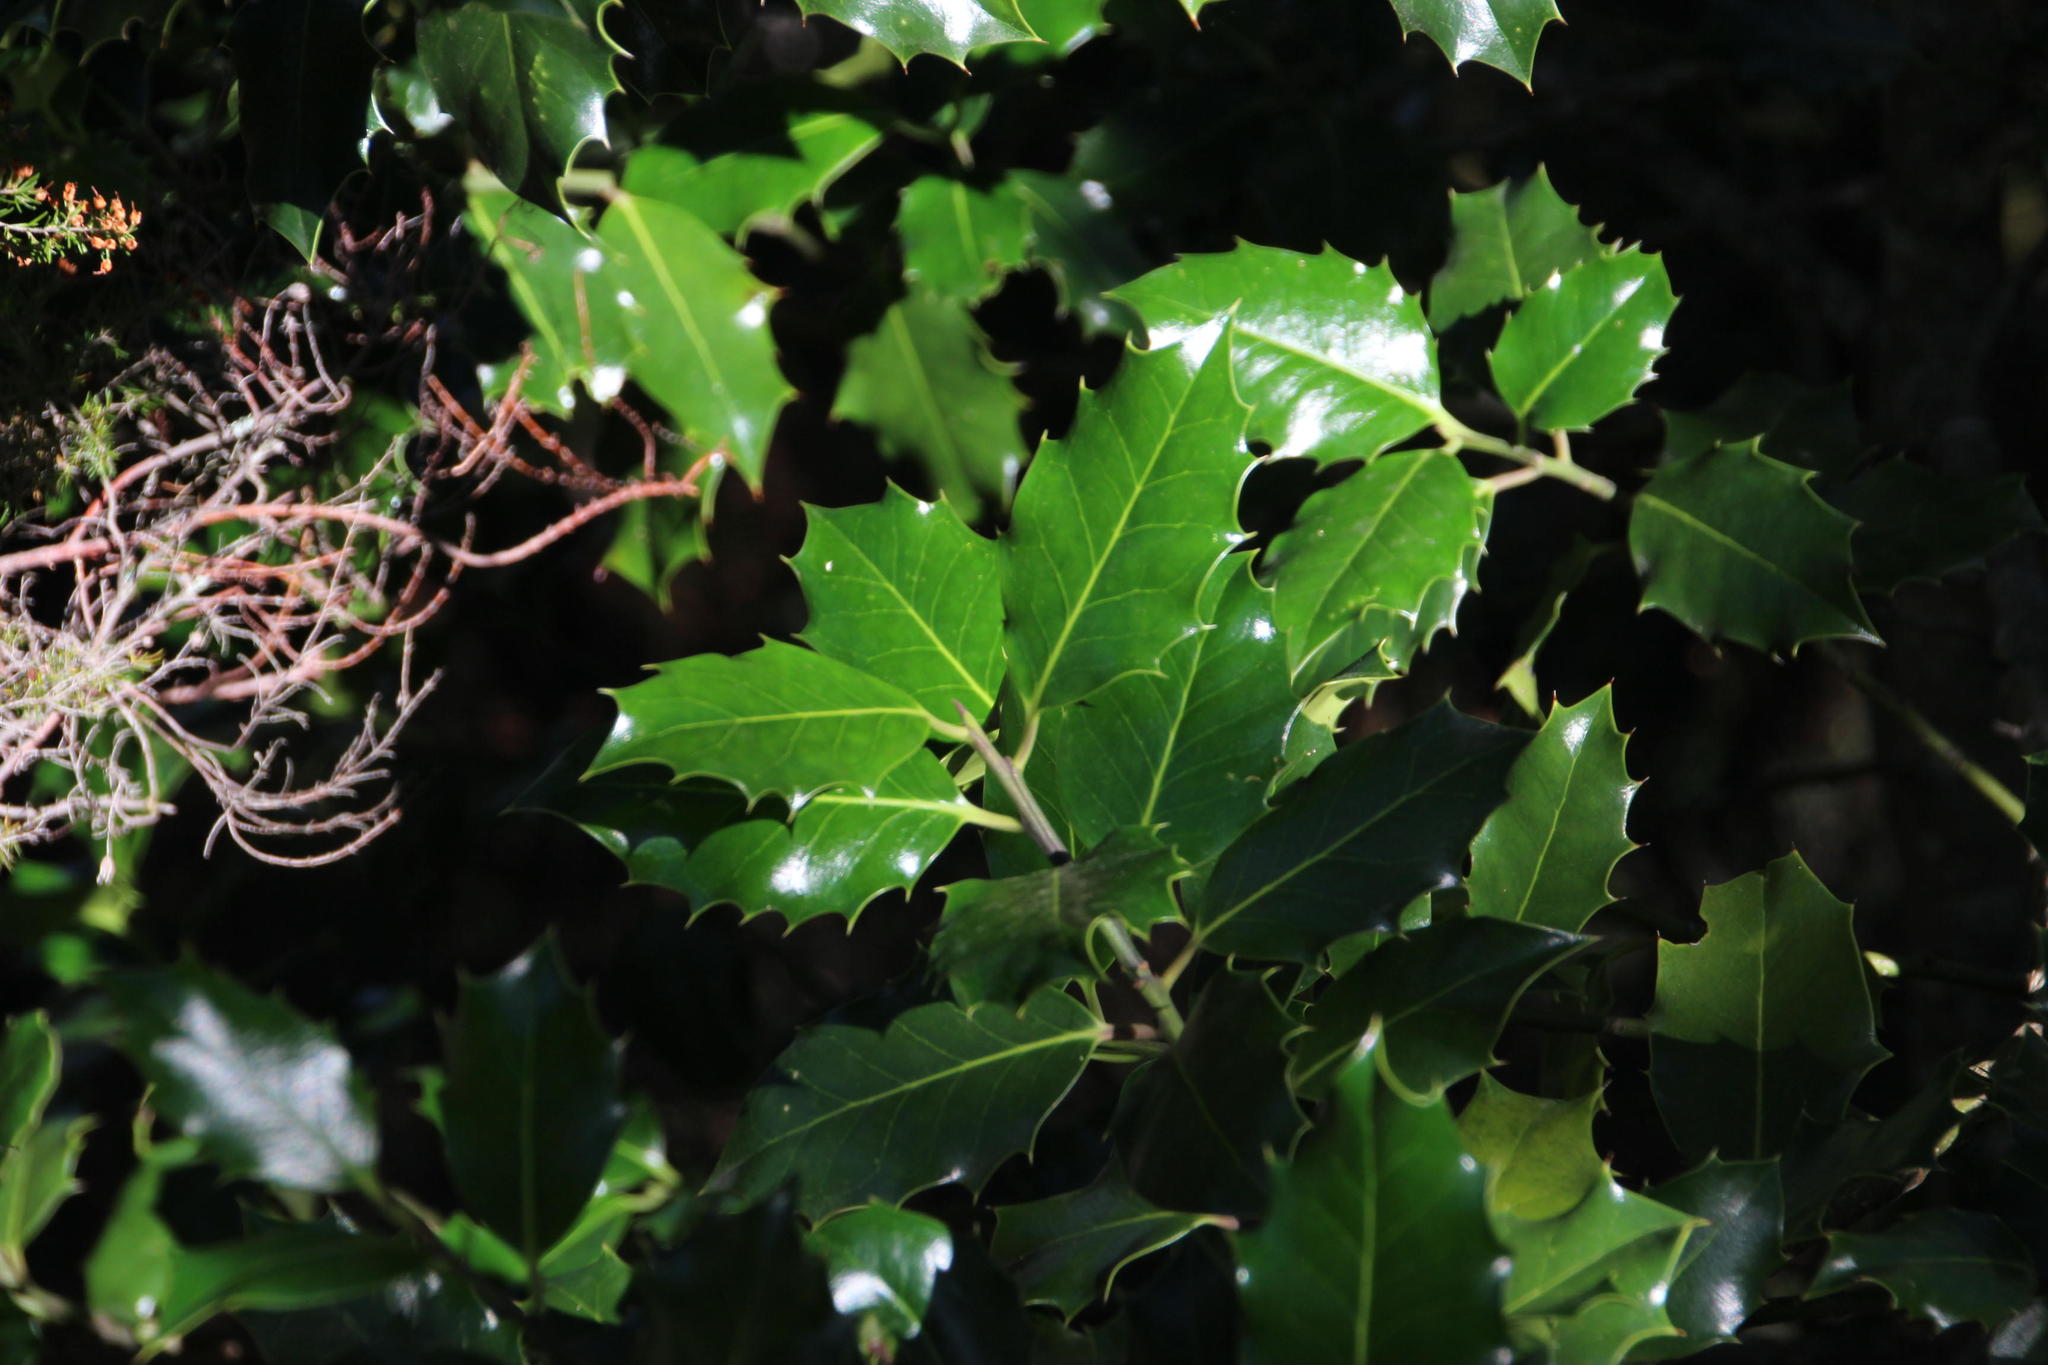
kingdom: Plantae
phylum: Tracheophyta
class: Magnoliopsida
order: Aquifoliales
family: Aquifoliaceae
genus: Ilex
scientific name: Ilex aquifolium
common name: English holly
